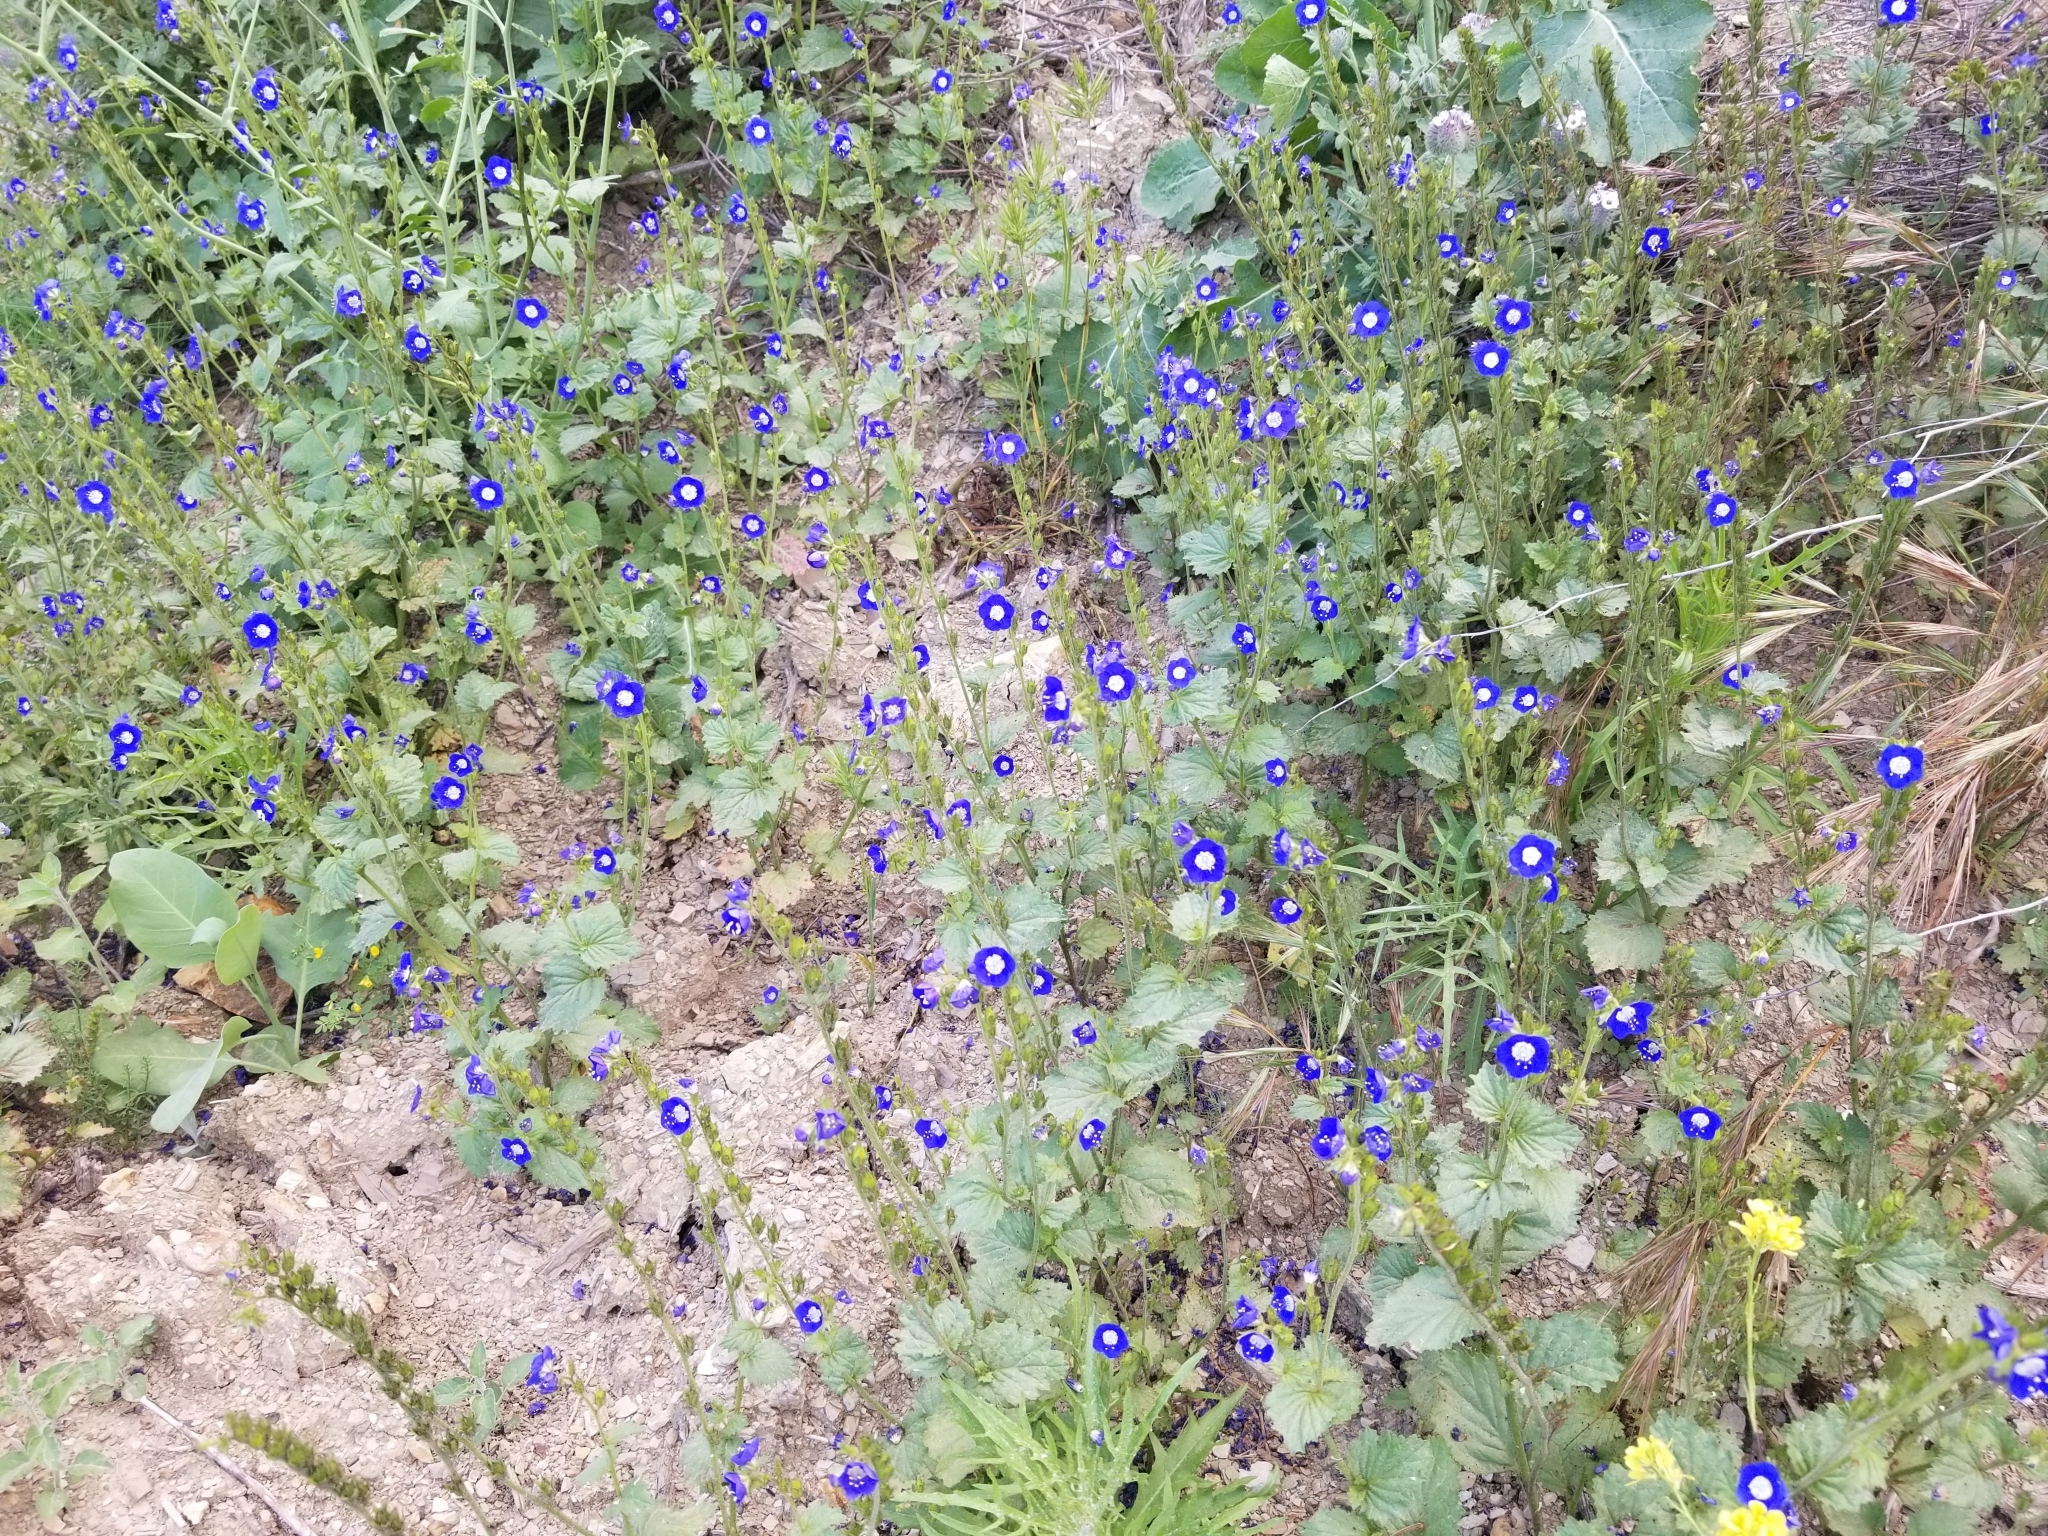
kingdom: Plantae
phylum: Tracheophyta
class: Magnoliopsida
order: Boraginales
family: Hydrophyllaceae
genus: Phacelia
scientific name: Phacelia viscida
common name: Sticky phacelia
